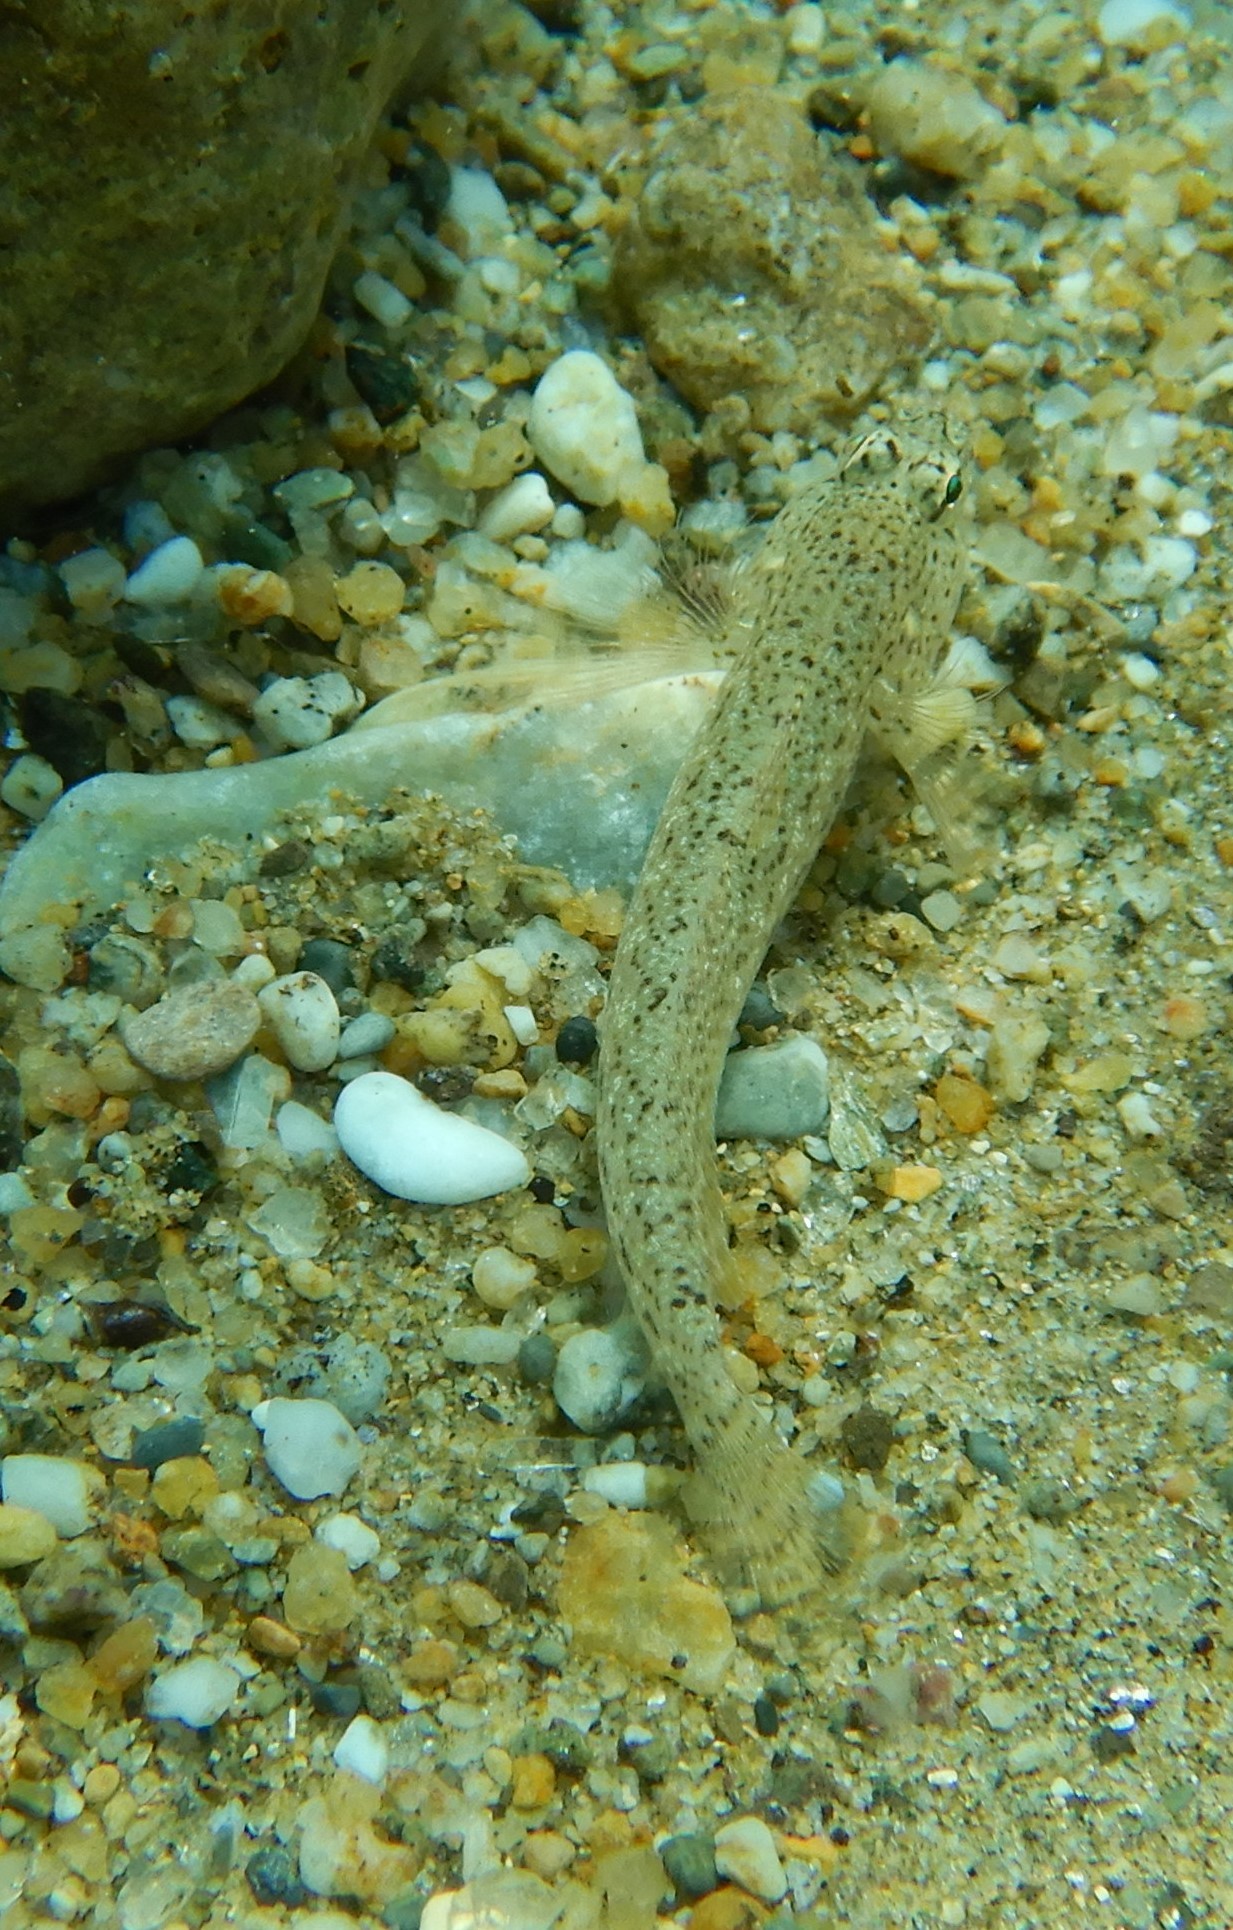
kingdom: Animalia
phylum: Chordata
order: Perciformes
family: Gobiidae
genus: Gobius
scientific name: Gobius incognitus
